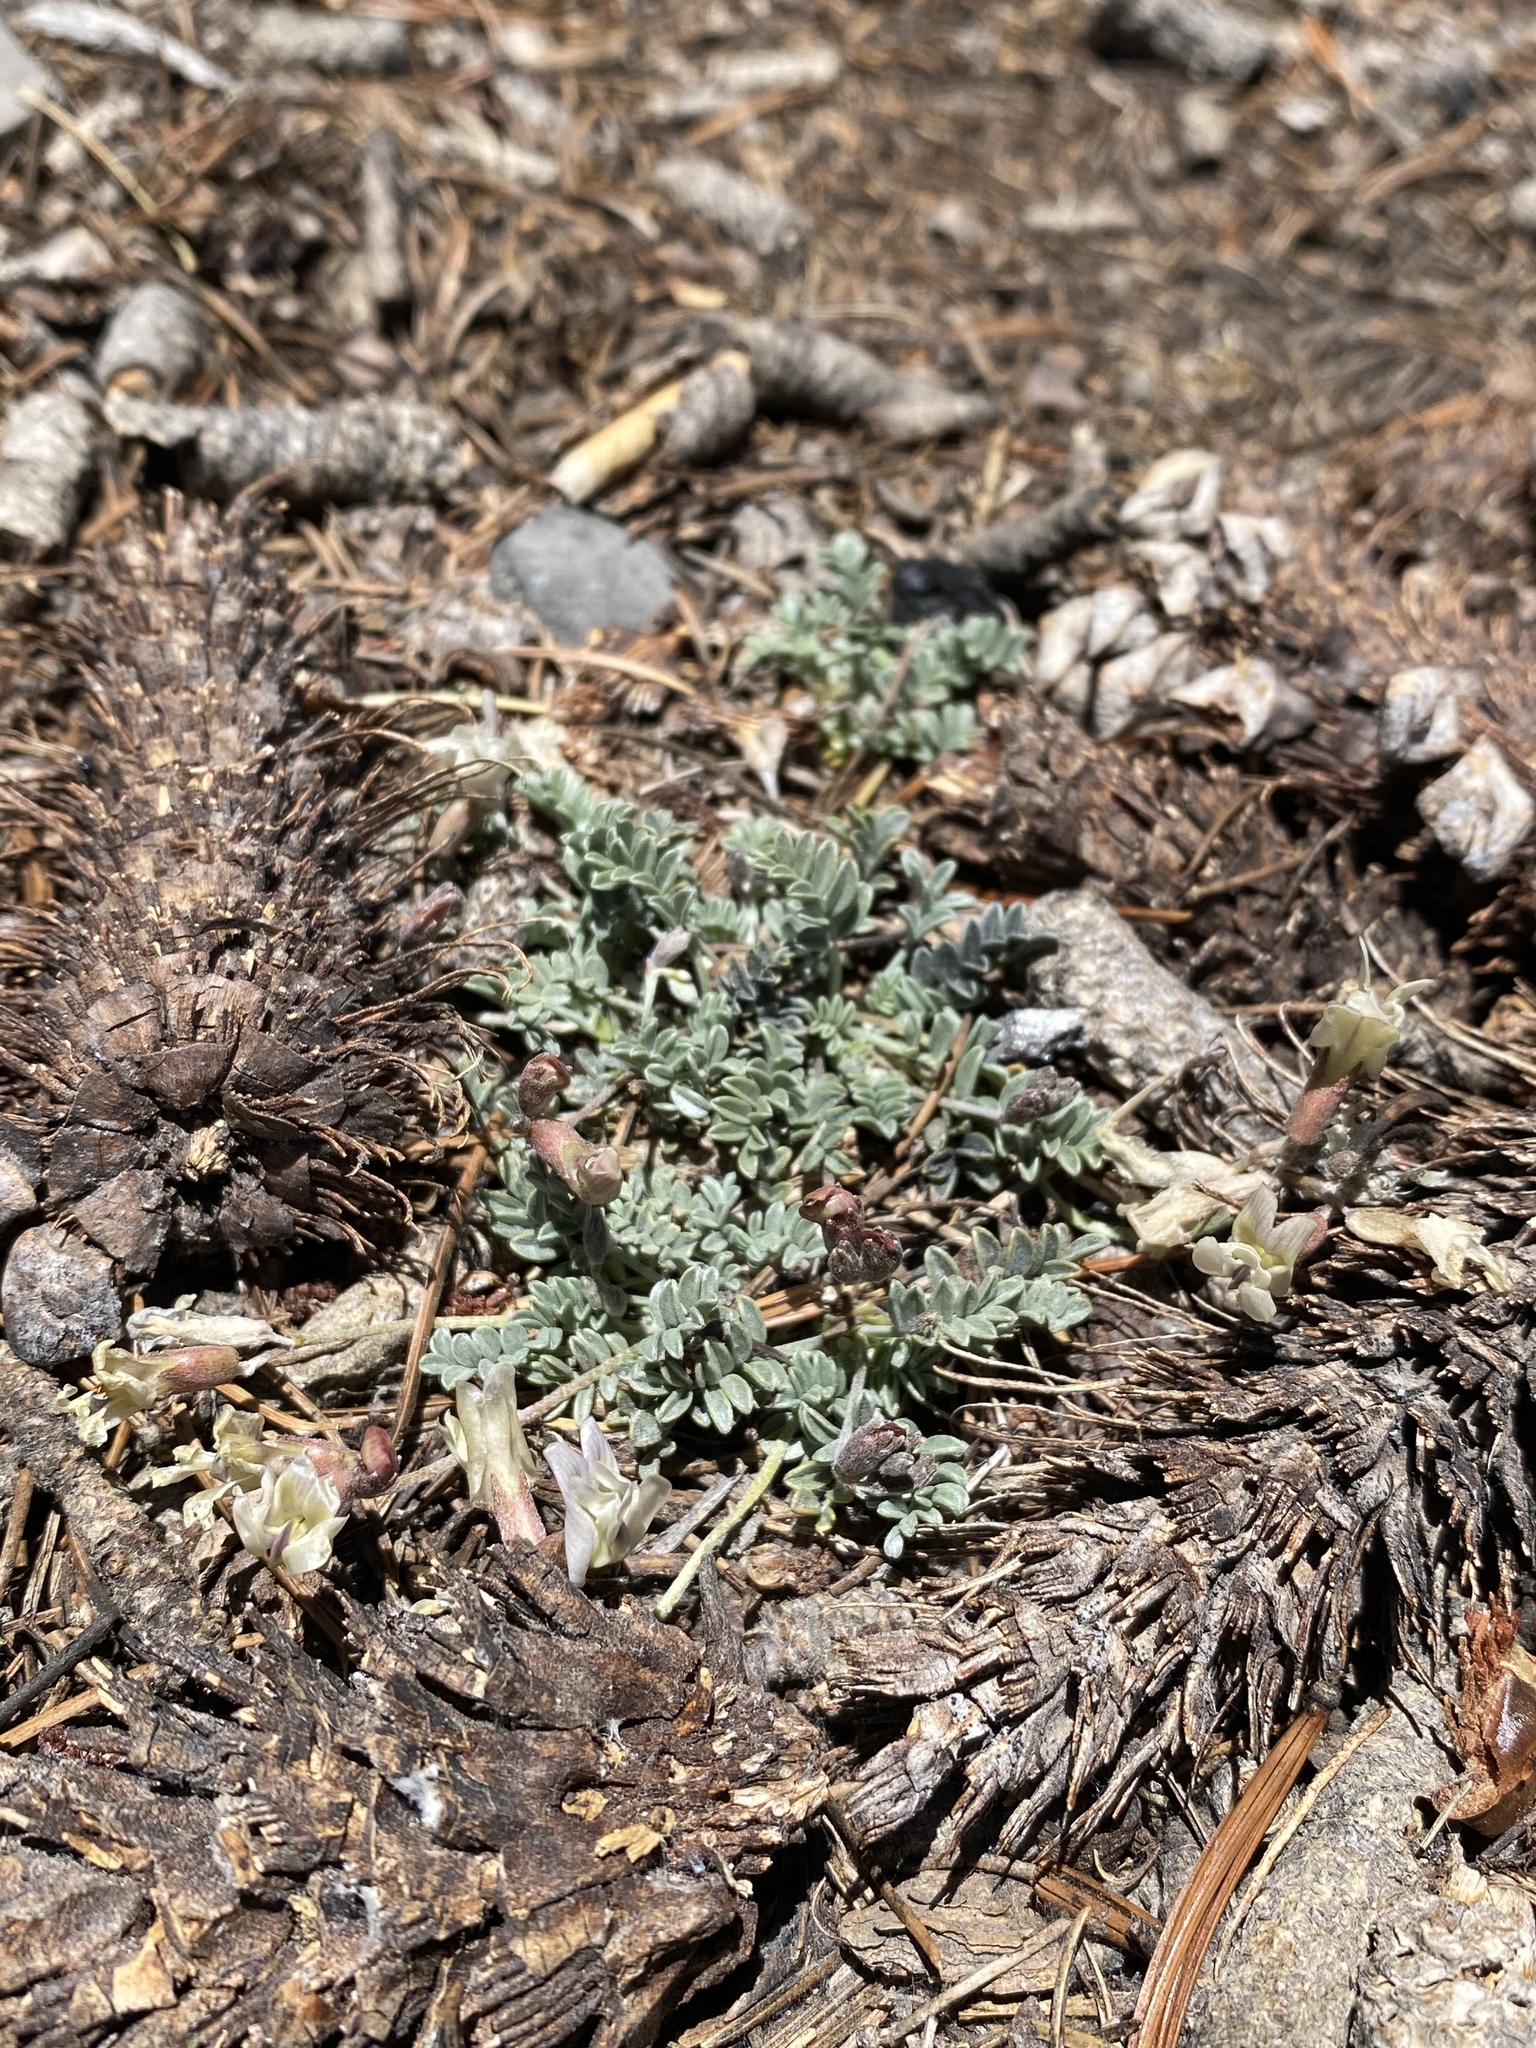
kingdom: Plantae
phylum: Tracheophyta
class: Magnoliopsida
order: Fabales
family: Fabaceae
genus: Astragalus
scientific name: Astragalus platytropis
